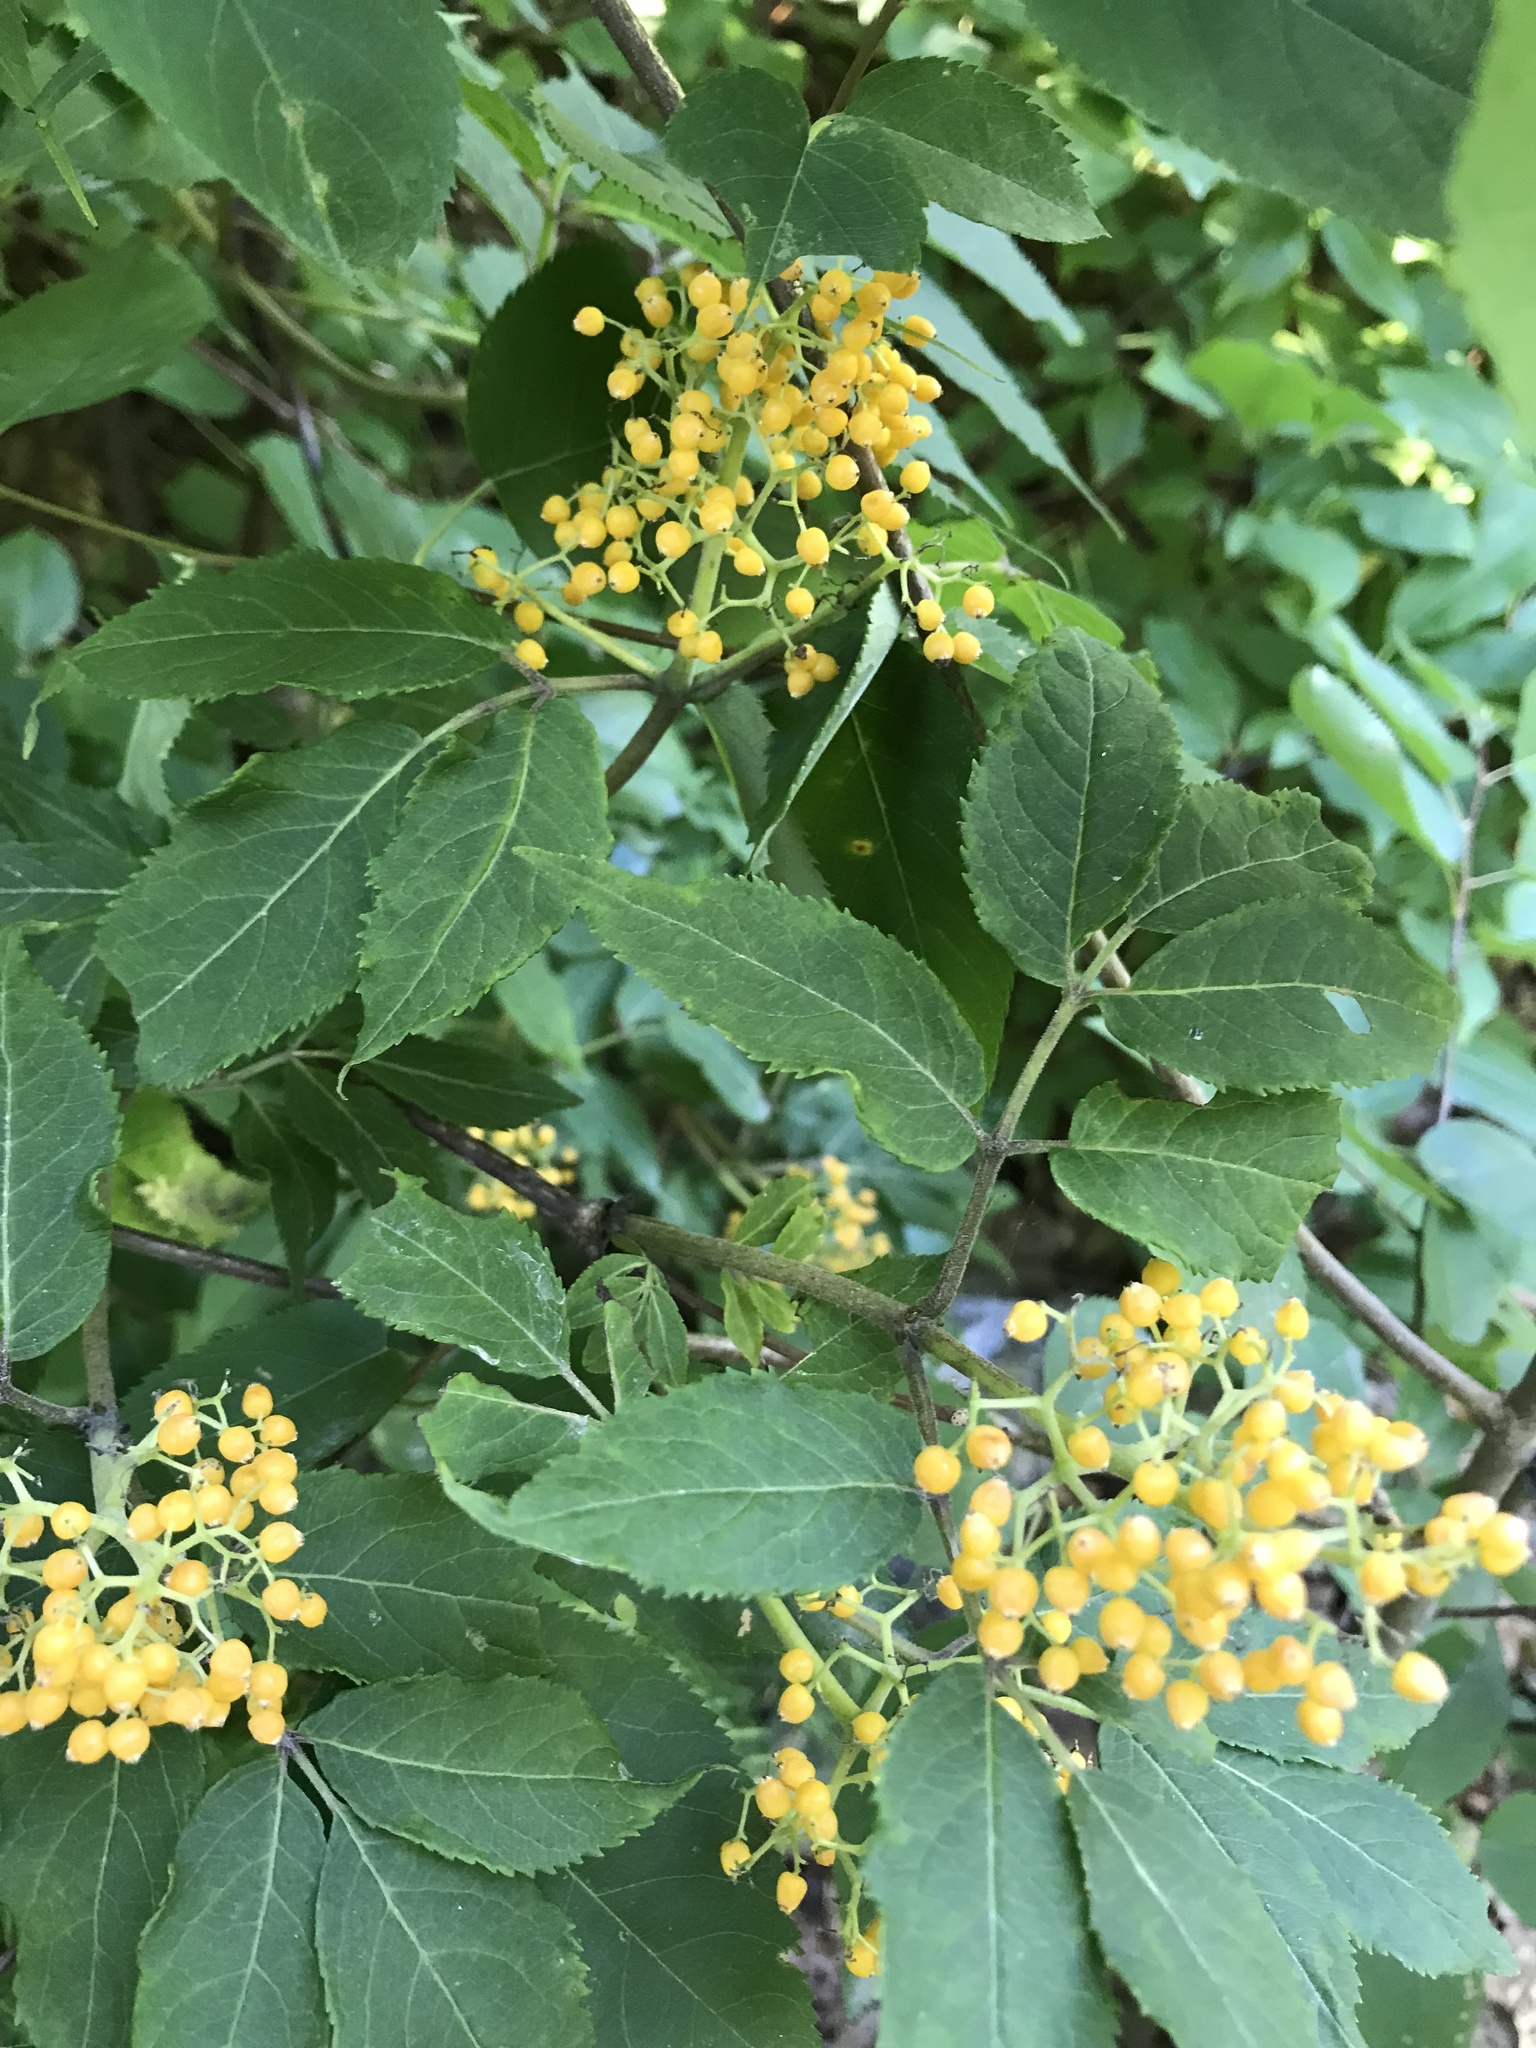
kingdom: Plantae
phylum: Tracheophyta
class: Magnoliopsida
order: Dipsacales
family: Viburnaceae
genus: Sambucus
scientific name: Sambucus racemosa
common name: Red-berried elder
